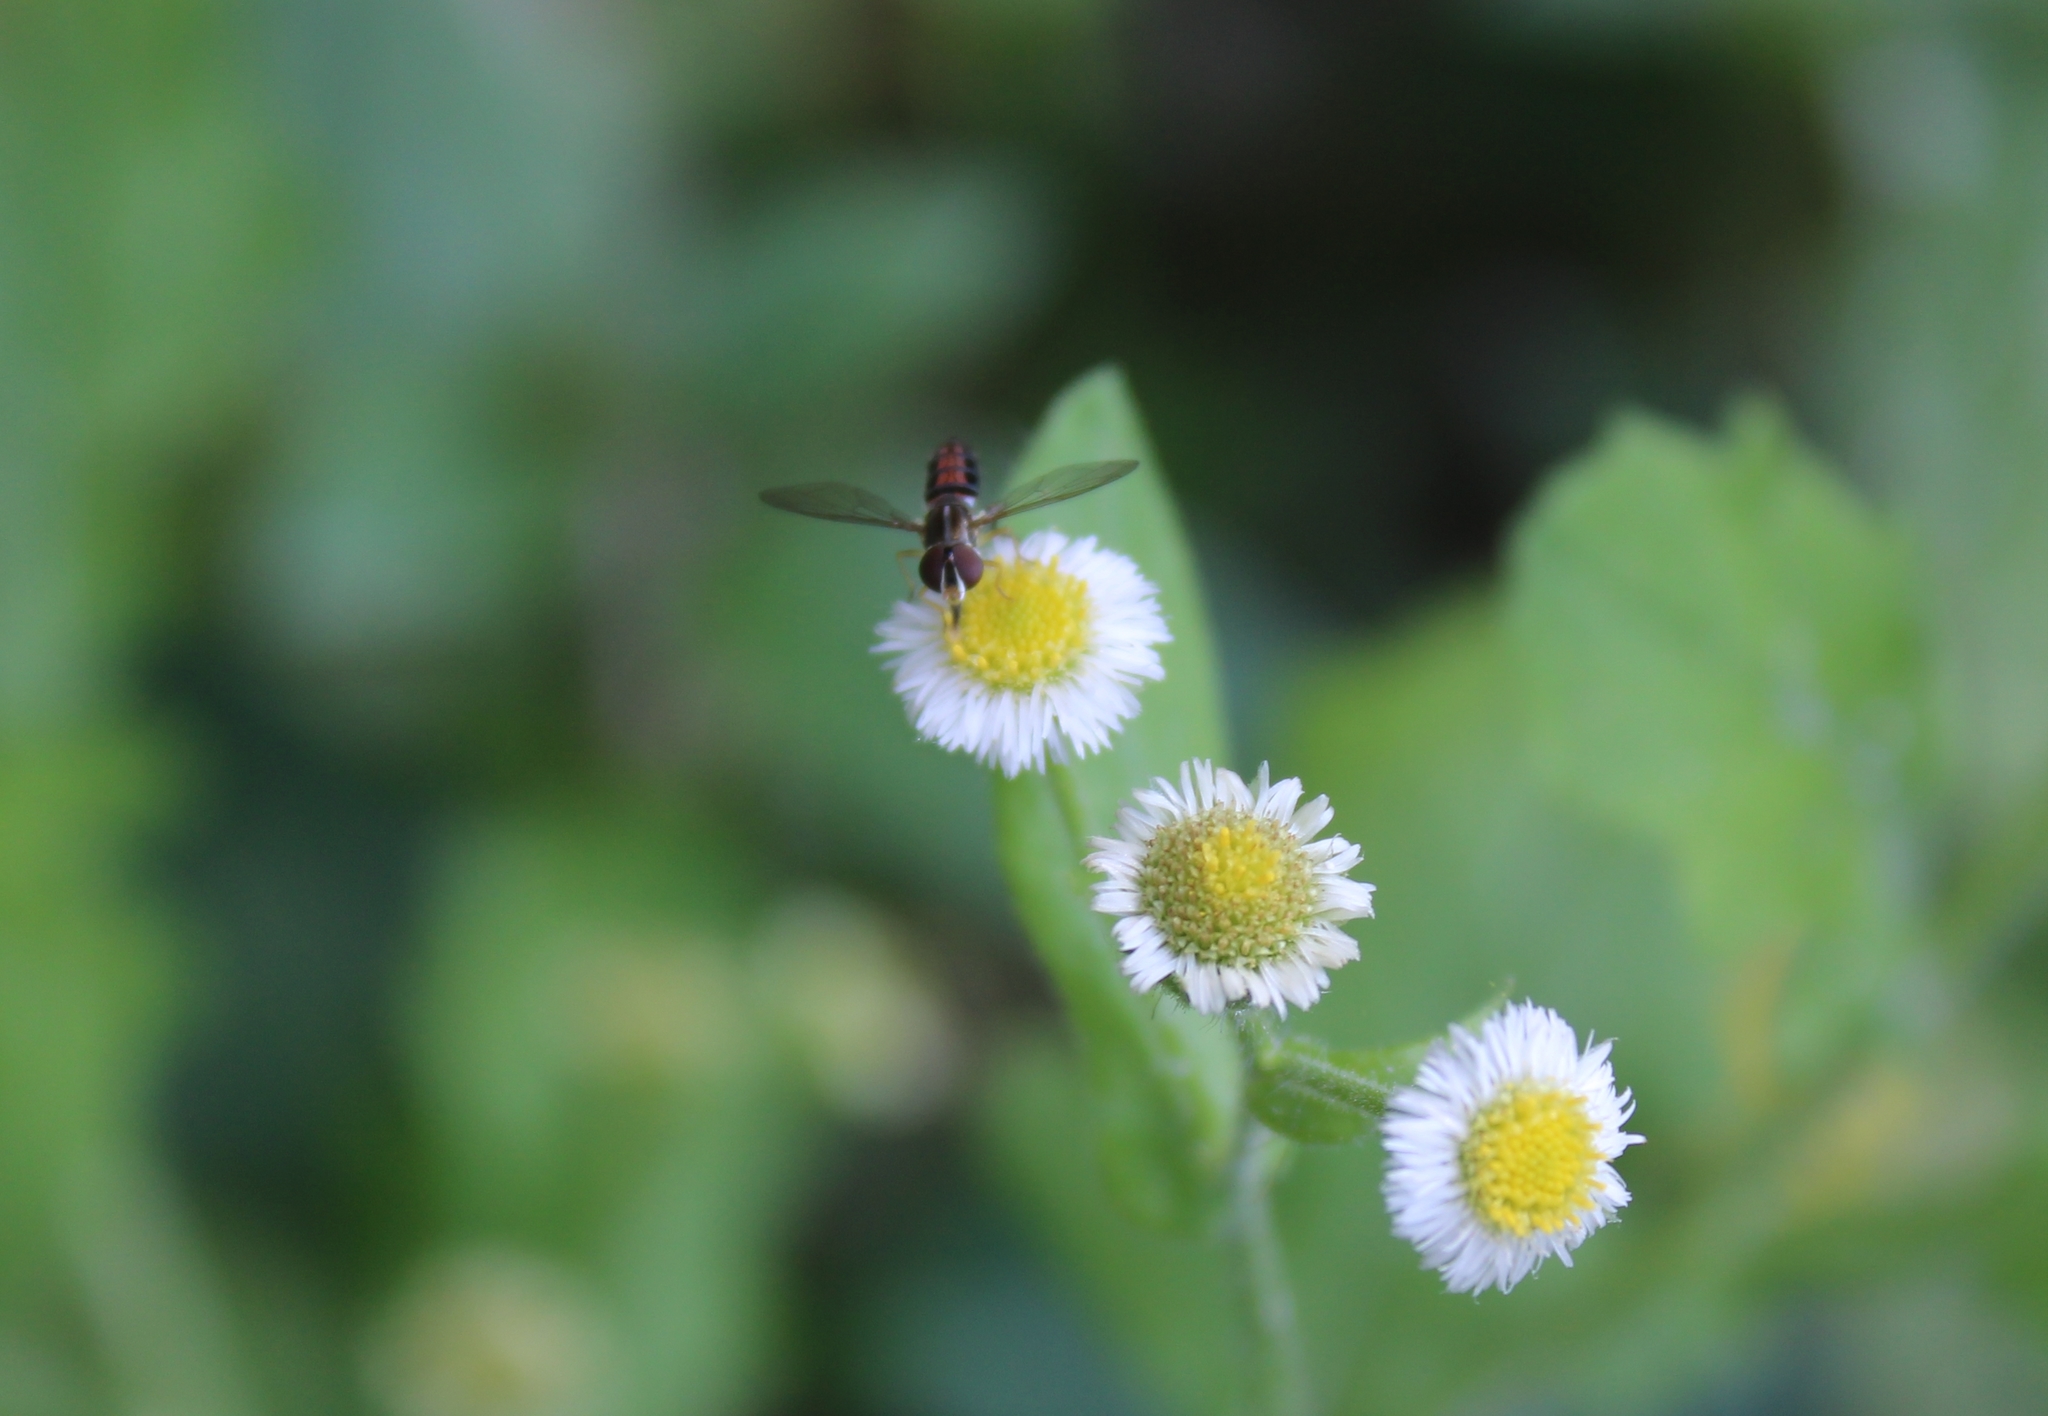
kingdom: Animalia
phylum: Arthropoda
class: Insecta
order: Diptera
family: Syrphidae
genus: Toxomerus
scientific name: Toxomerus bistrigus
